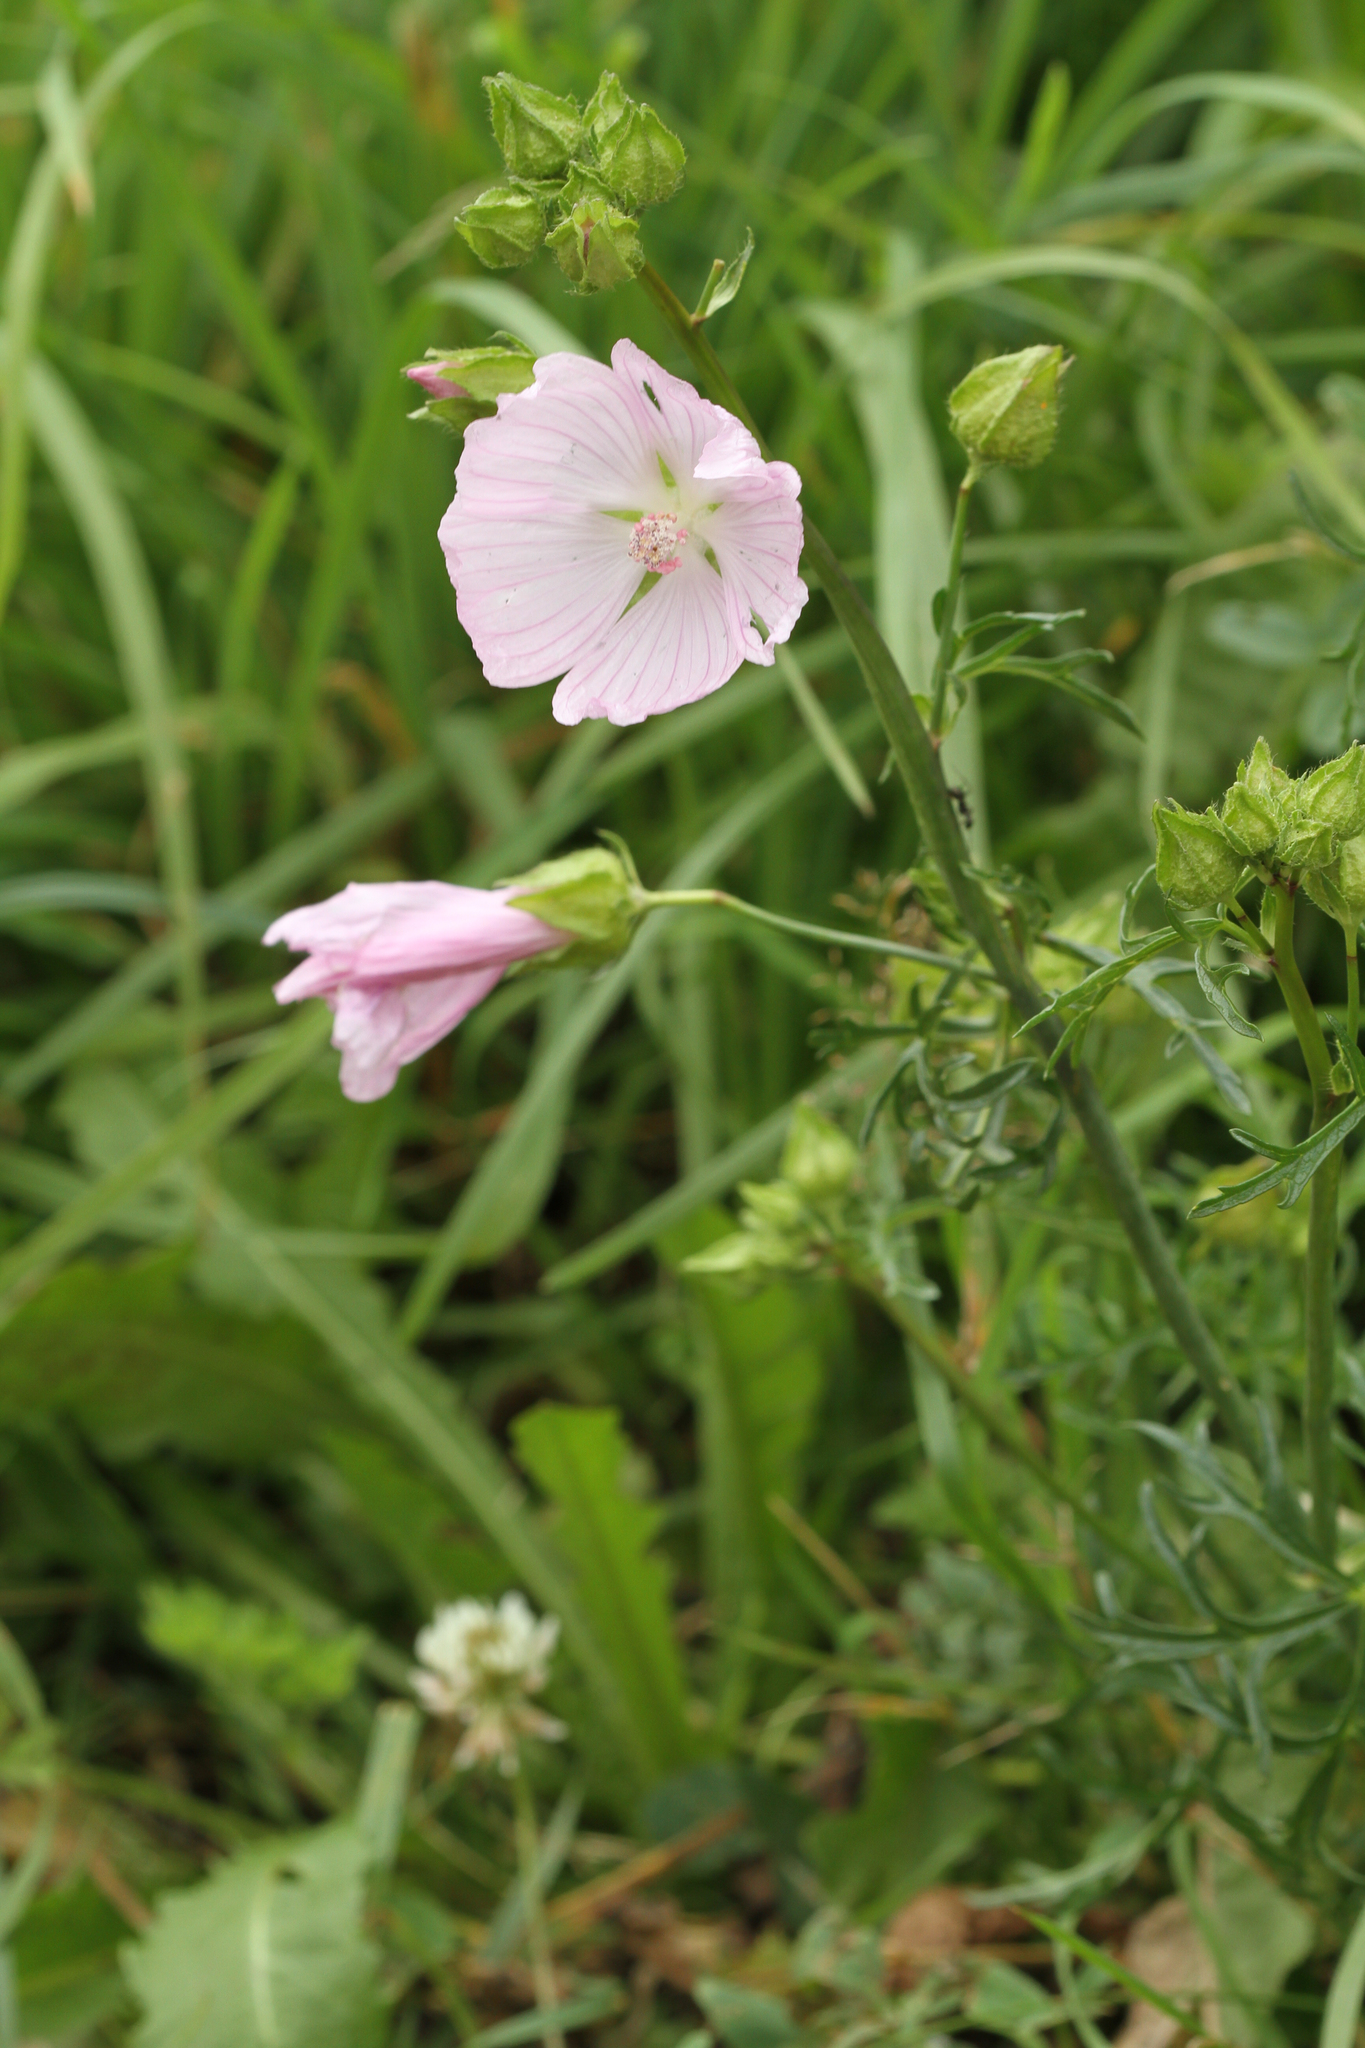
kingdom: Plantae
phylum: Tracheophyta
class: Magnoliopsida
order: Malvales
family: Malvaceae
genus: Malva
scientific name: Malva moschata
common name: Musk mallow
